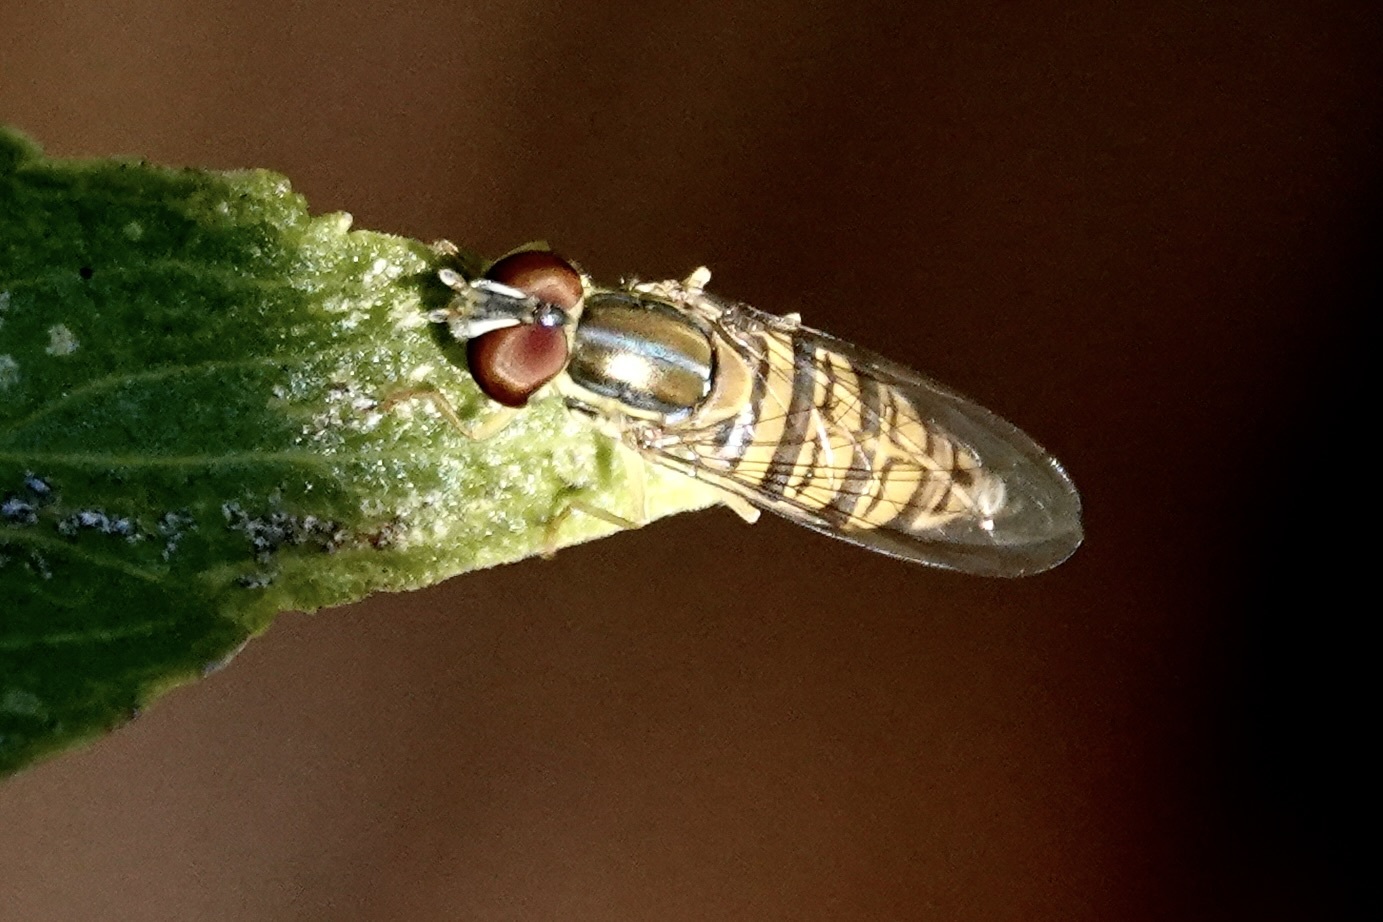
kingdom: Animalia
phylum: Arthropoda
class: Insecta
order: Diptera
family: Syrphidae
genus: Toxomerus
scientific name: Toxomerus politus
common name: Maize calligrapher
